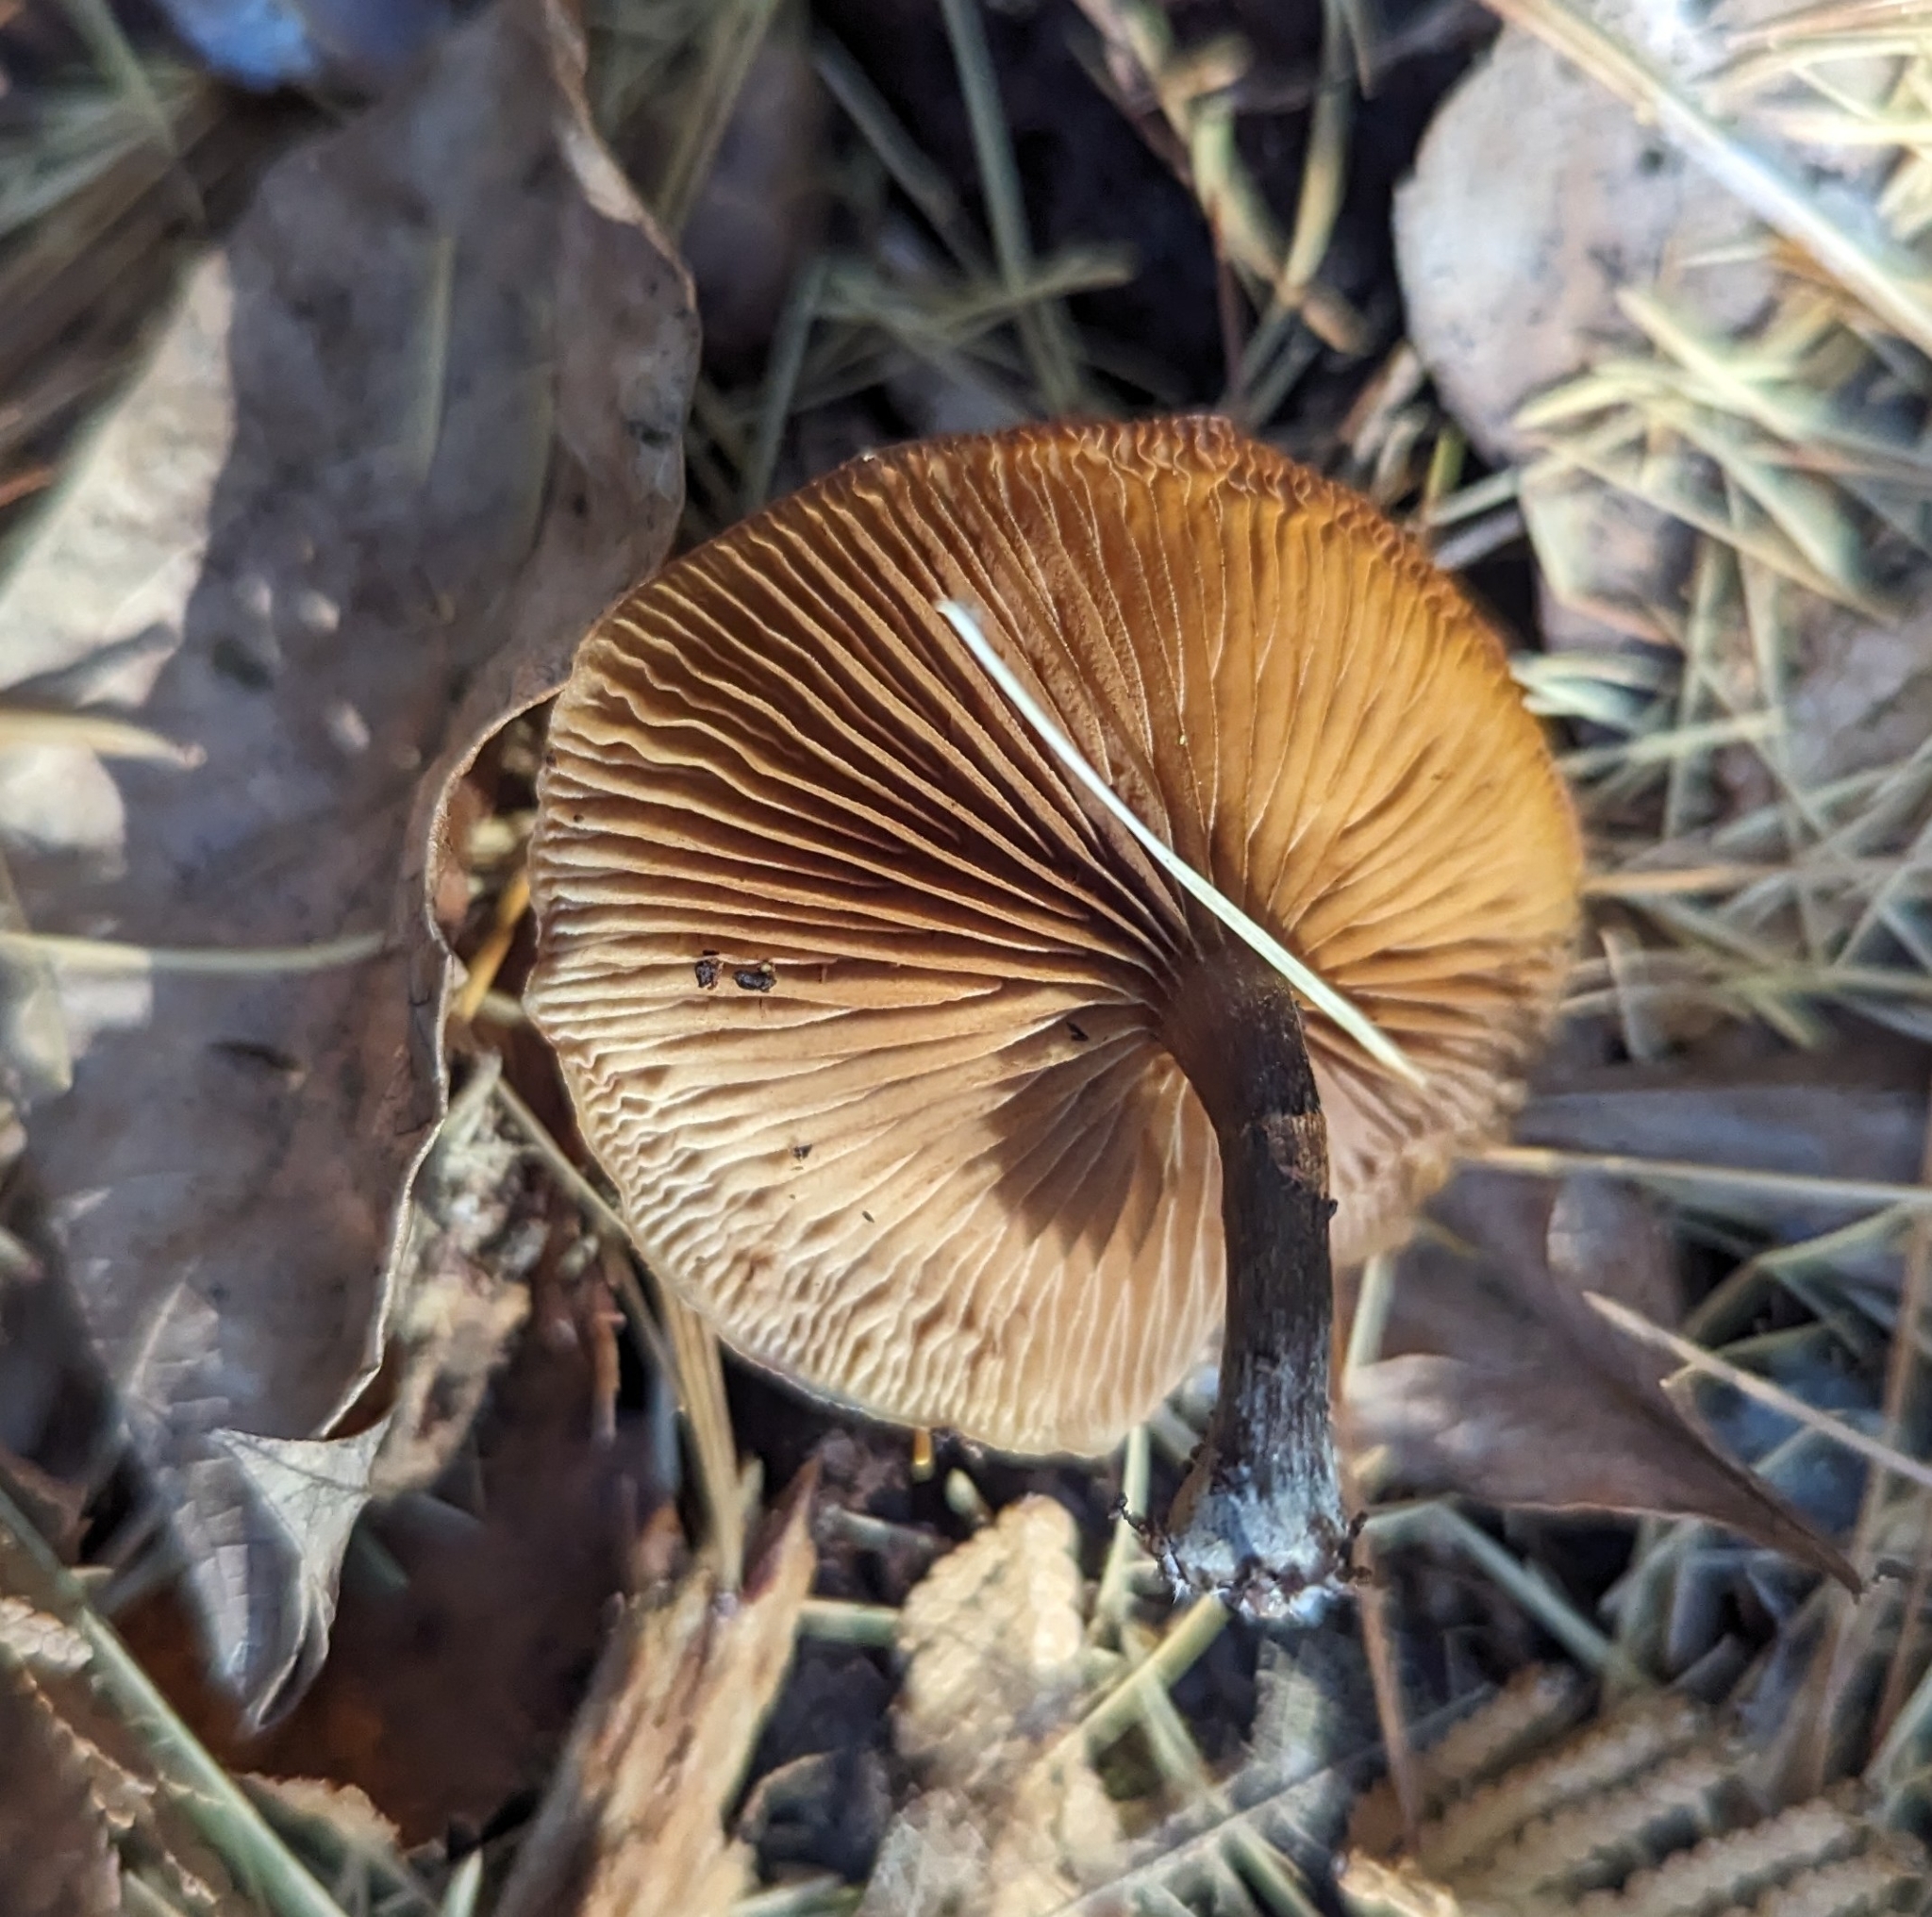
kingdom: Fungi
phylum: Basidiomycota
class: Agaricomycetes
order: Agaricales
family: Hymenogastraceae
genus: Galerina
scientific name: Galerina marginata
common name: Funeral bell
